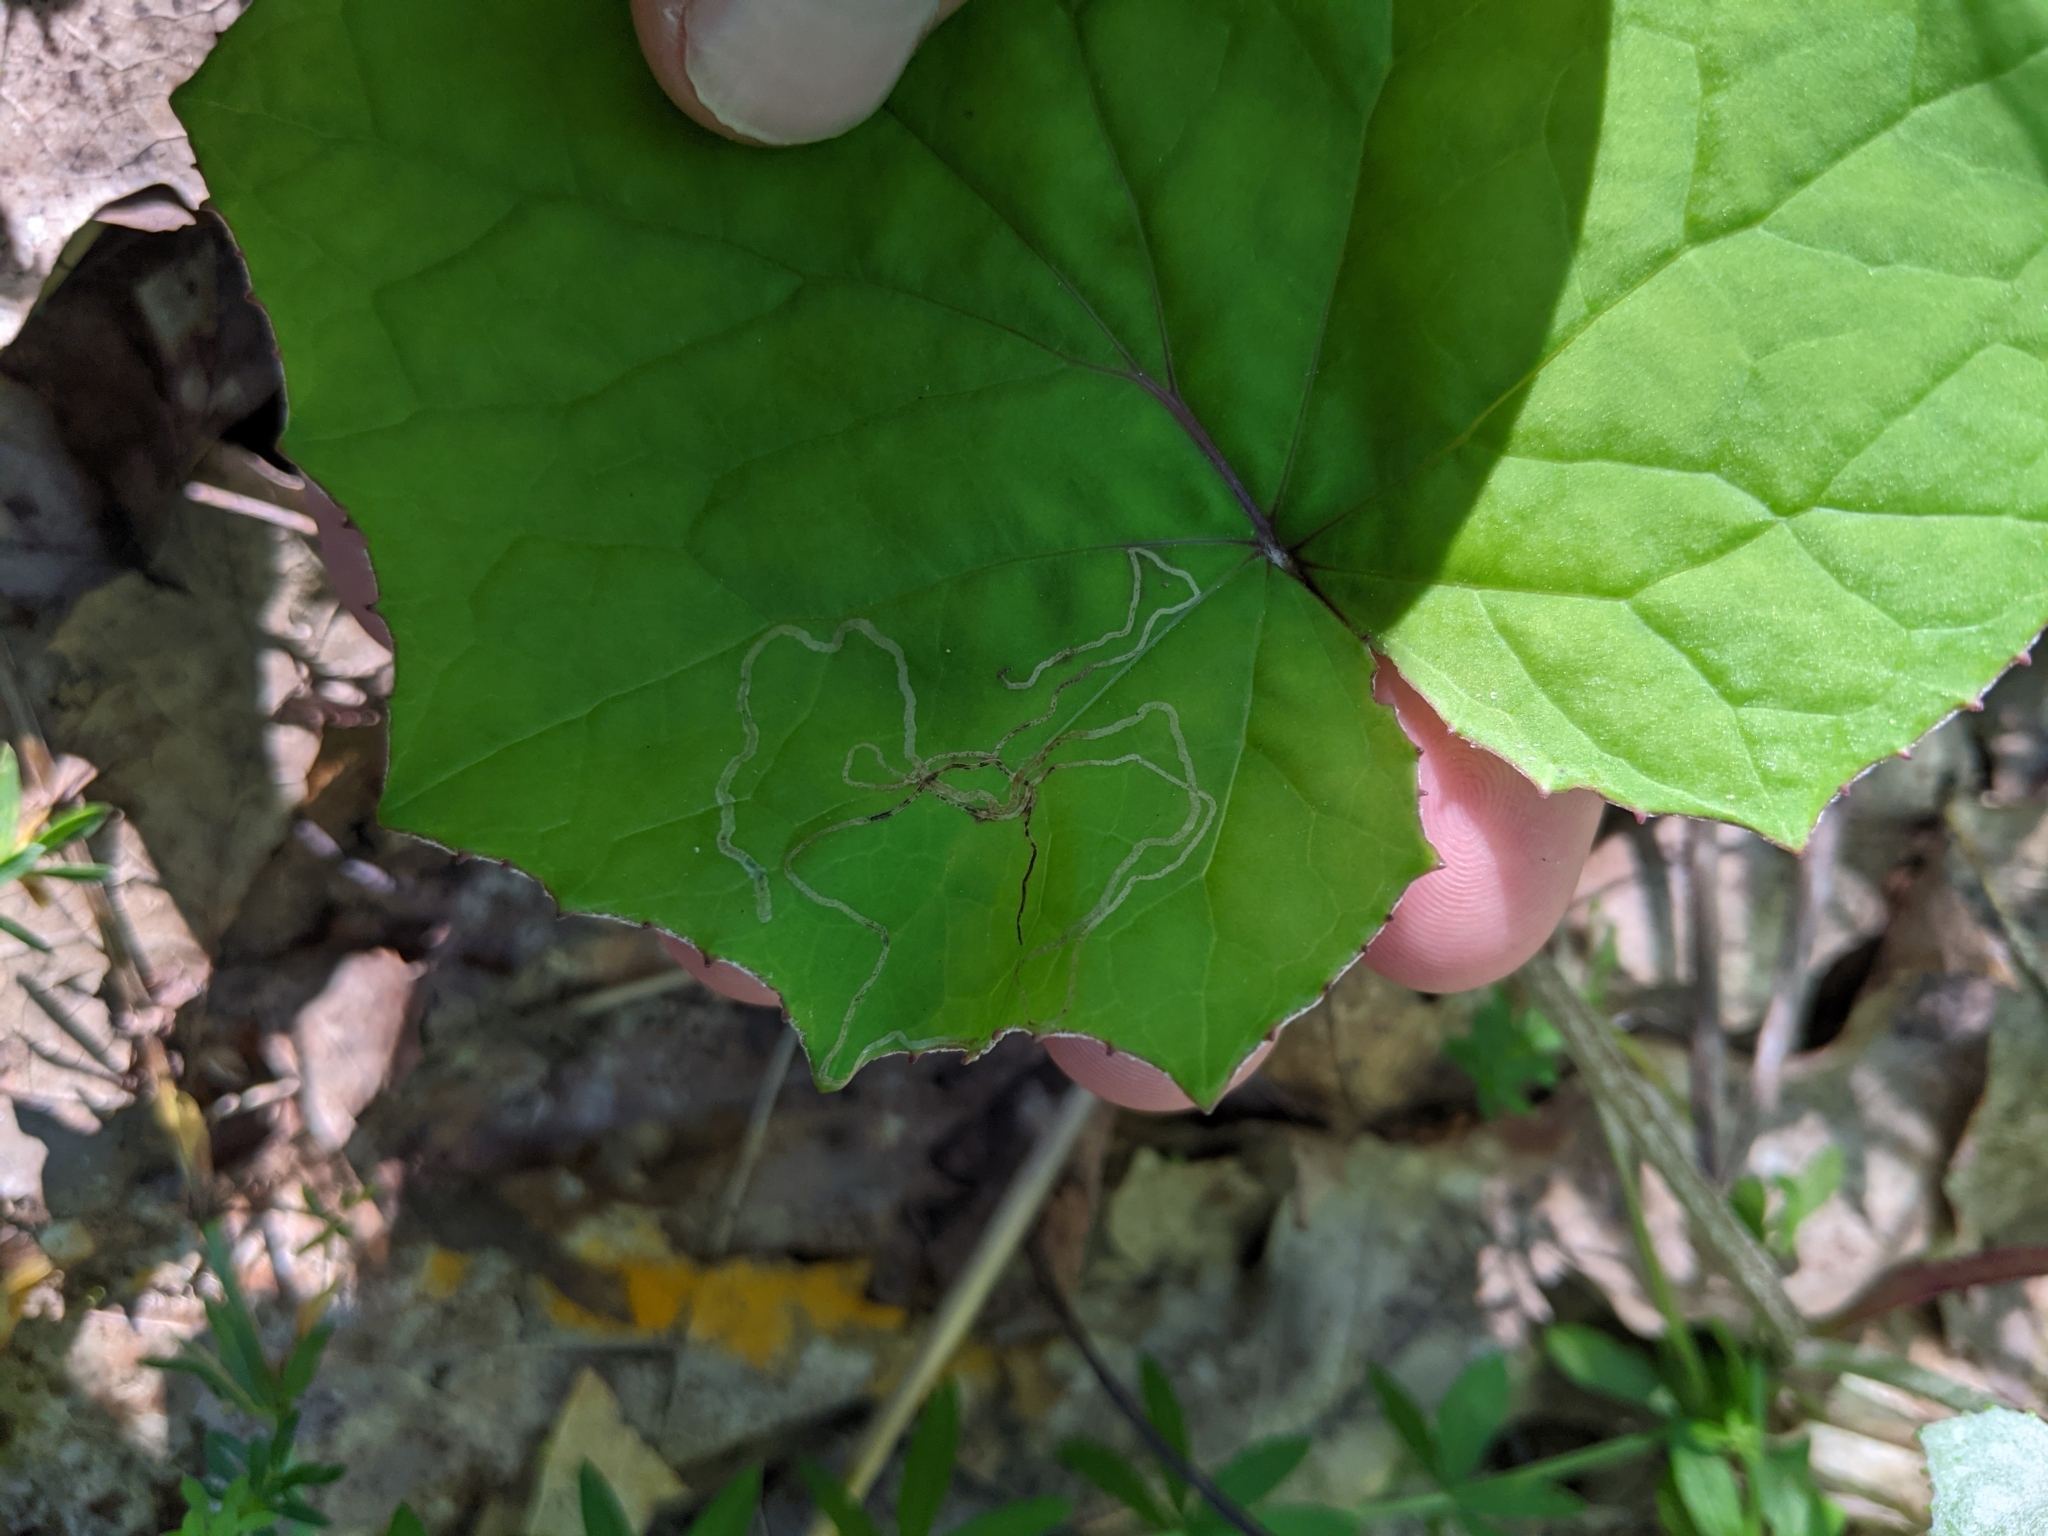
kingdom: Animalia
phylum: Arthropoda
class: Insecta
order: Lepidoptera
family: Gracillariidae
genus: Phyllocnistis
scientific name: Phyllocnistis insignis
